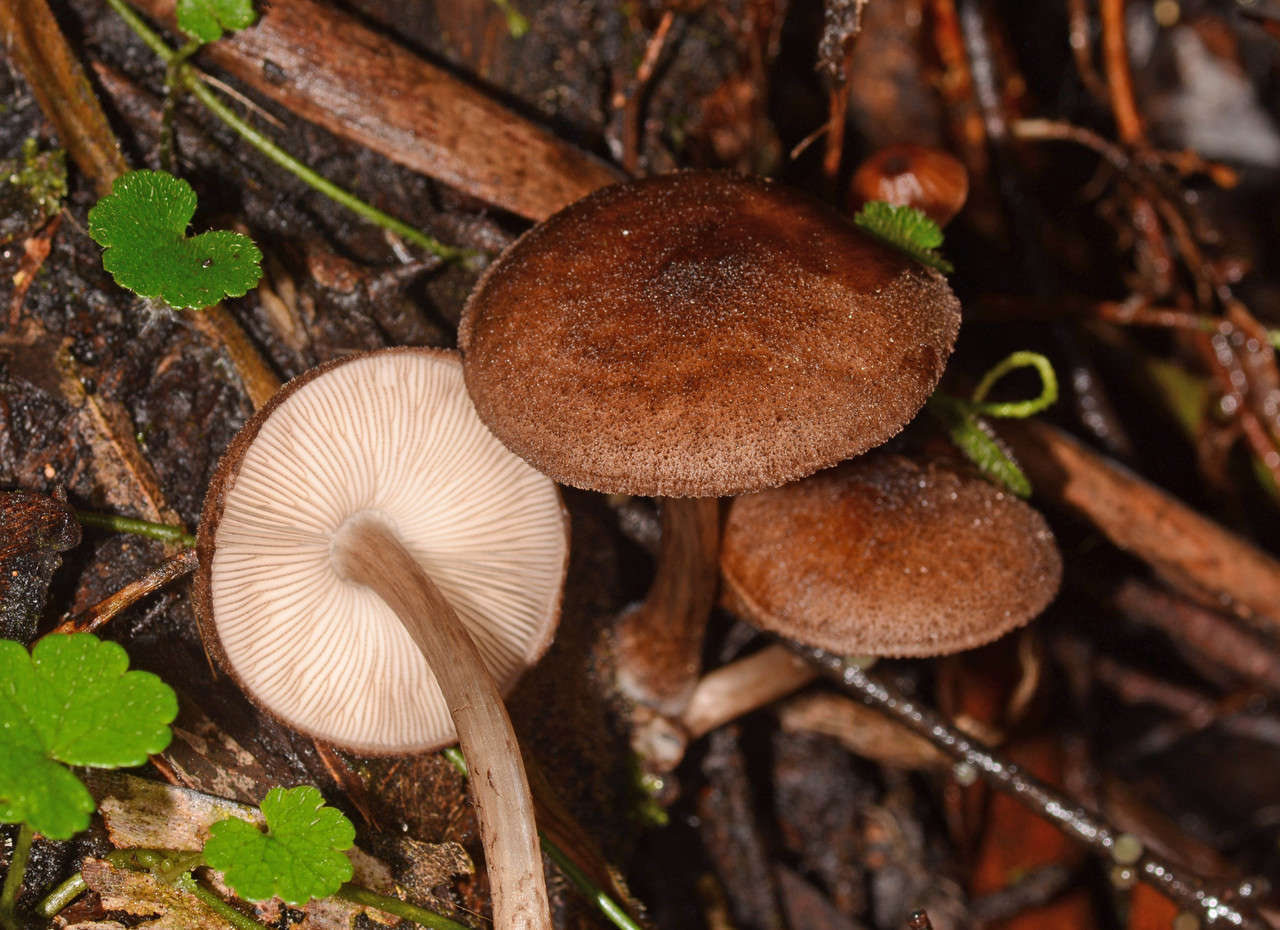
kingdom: Fungi
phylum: Basidiomycota
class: Agaricomycetes
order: Agaricales
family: Pluteaceae
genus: Pluteus
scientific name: Pluteus atromarginatus
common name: Blackedged shield
